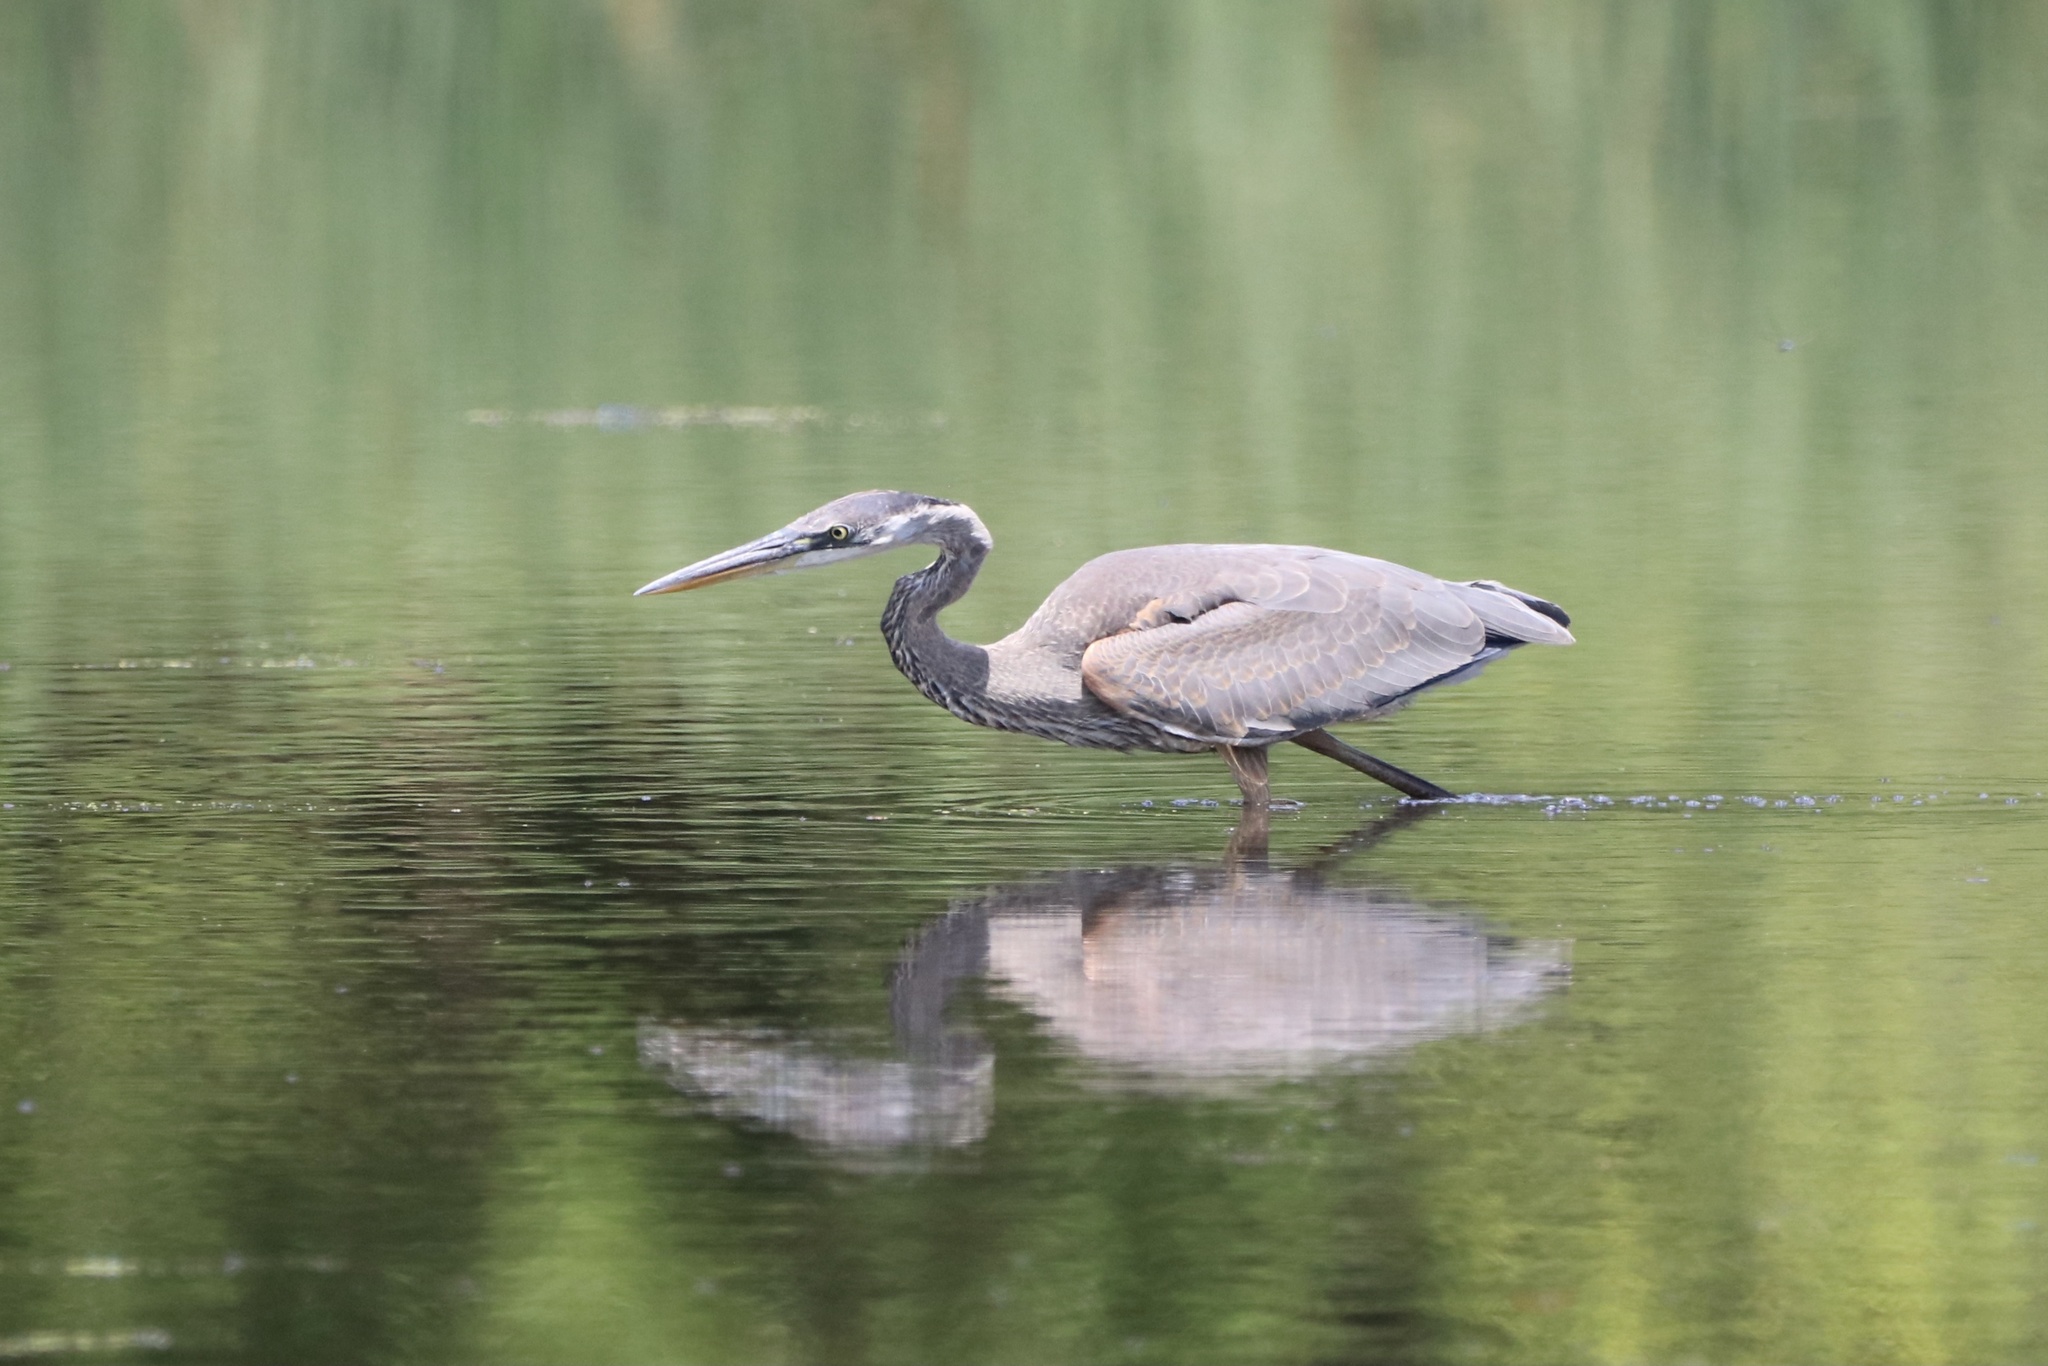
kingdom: Animalia
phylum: Chordata
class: Aves
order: Pelecaniformes
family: Ardeidae
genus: Ardea
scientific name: Ardea herodias
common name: Great blue heron
